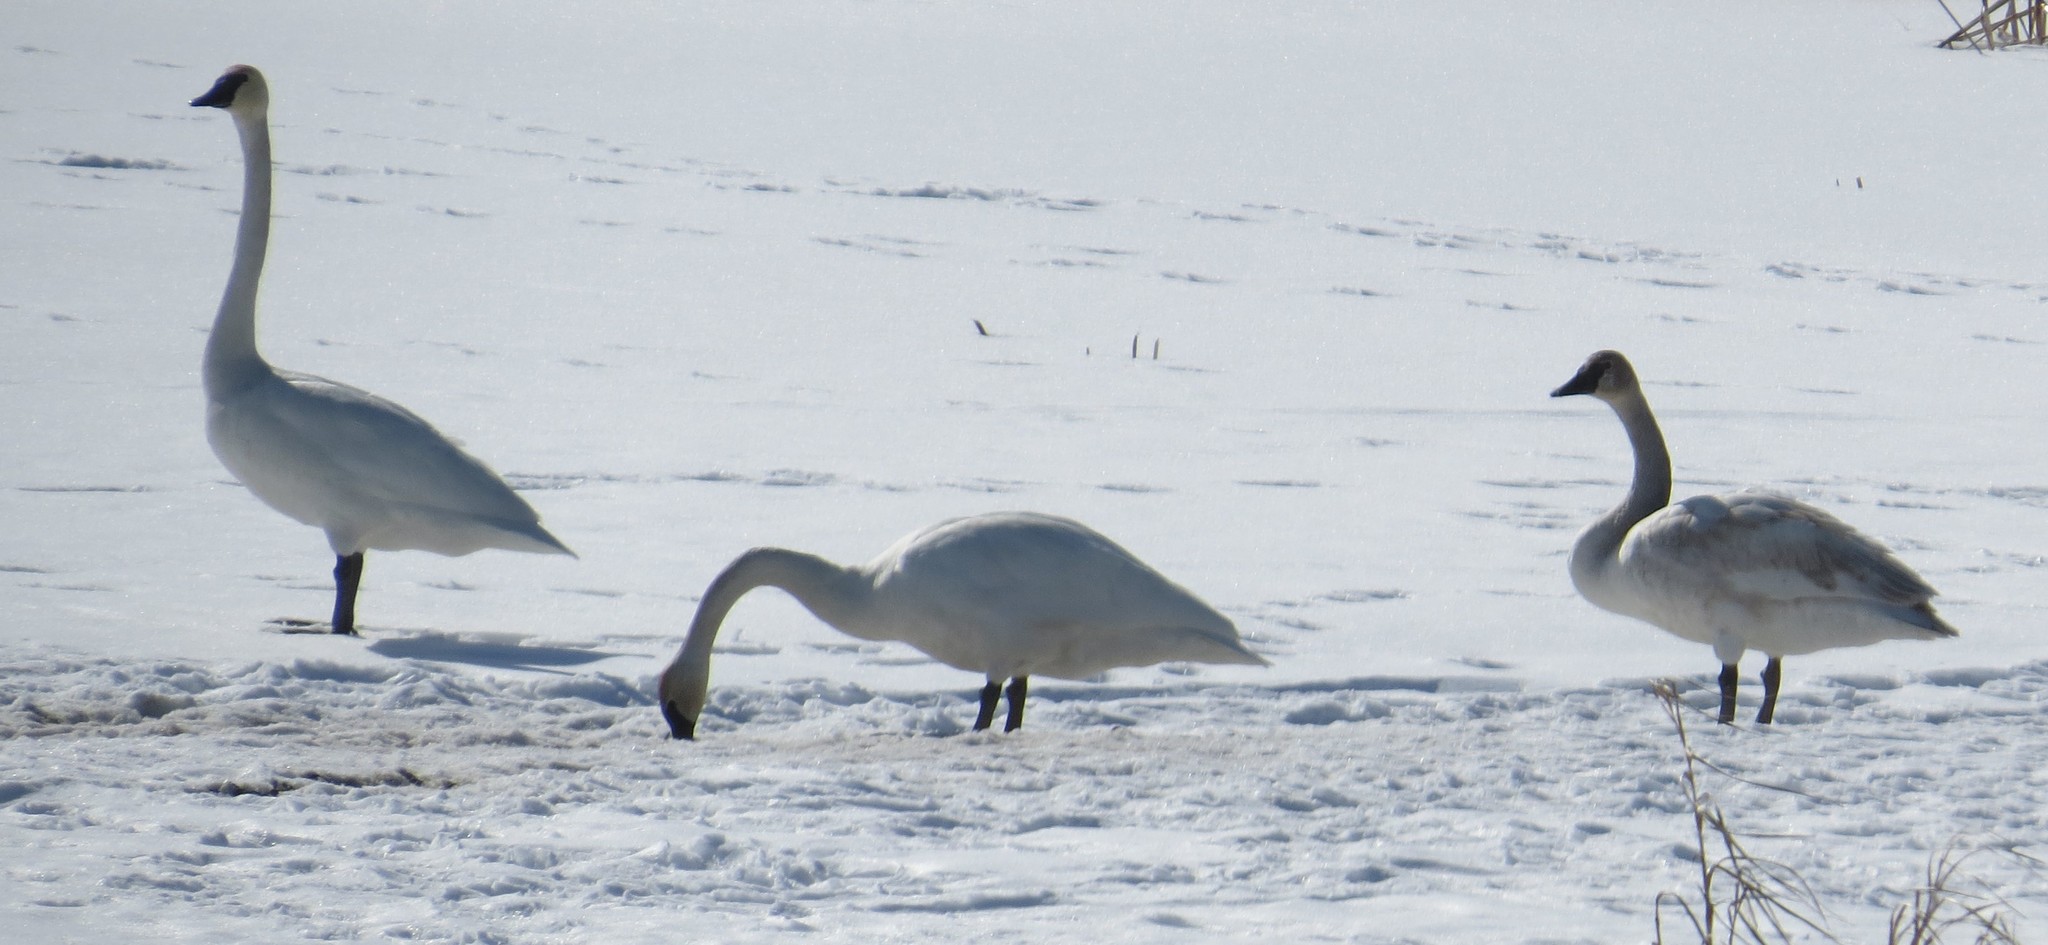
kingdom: Animalia
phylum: Chordata
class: Aves
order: Anseriformes
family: Anatidae
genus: Cygnus
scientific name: Cygnus buccinator
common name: Trumpeter swan
